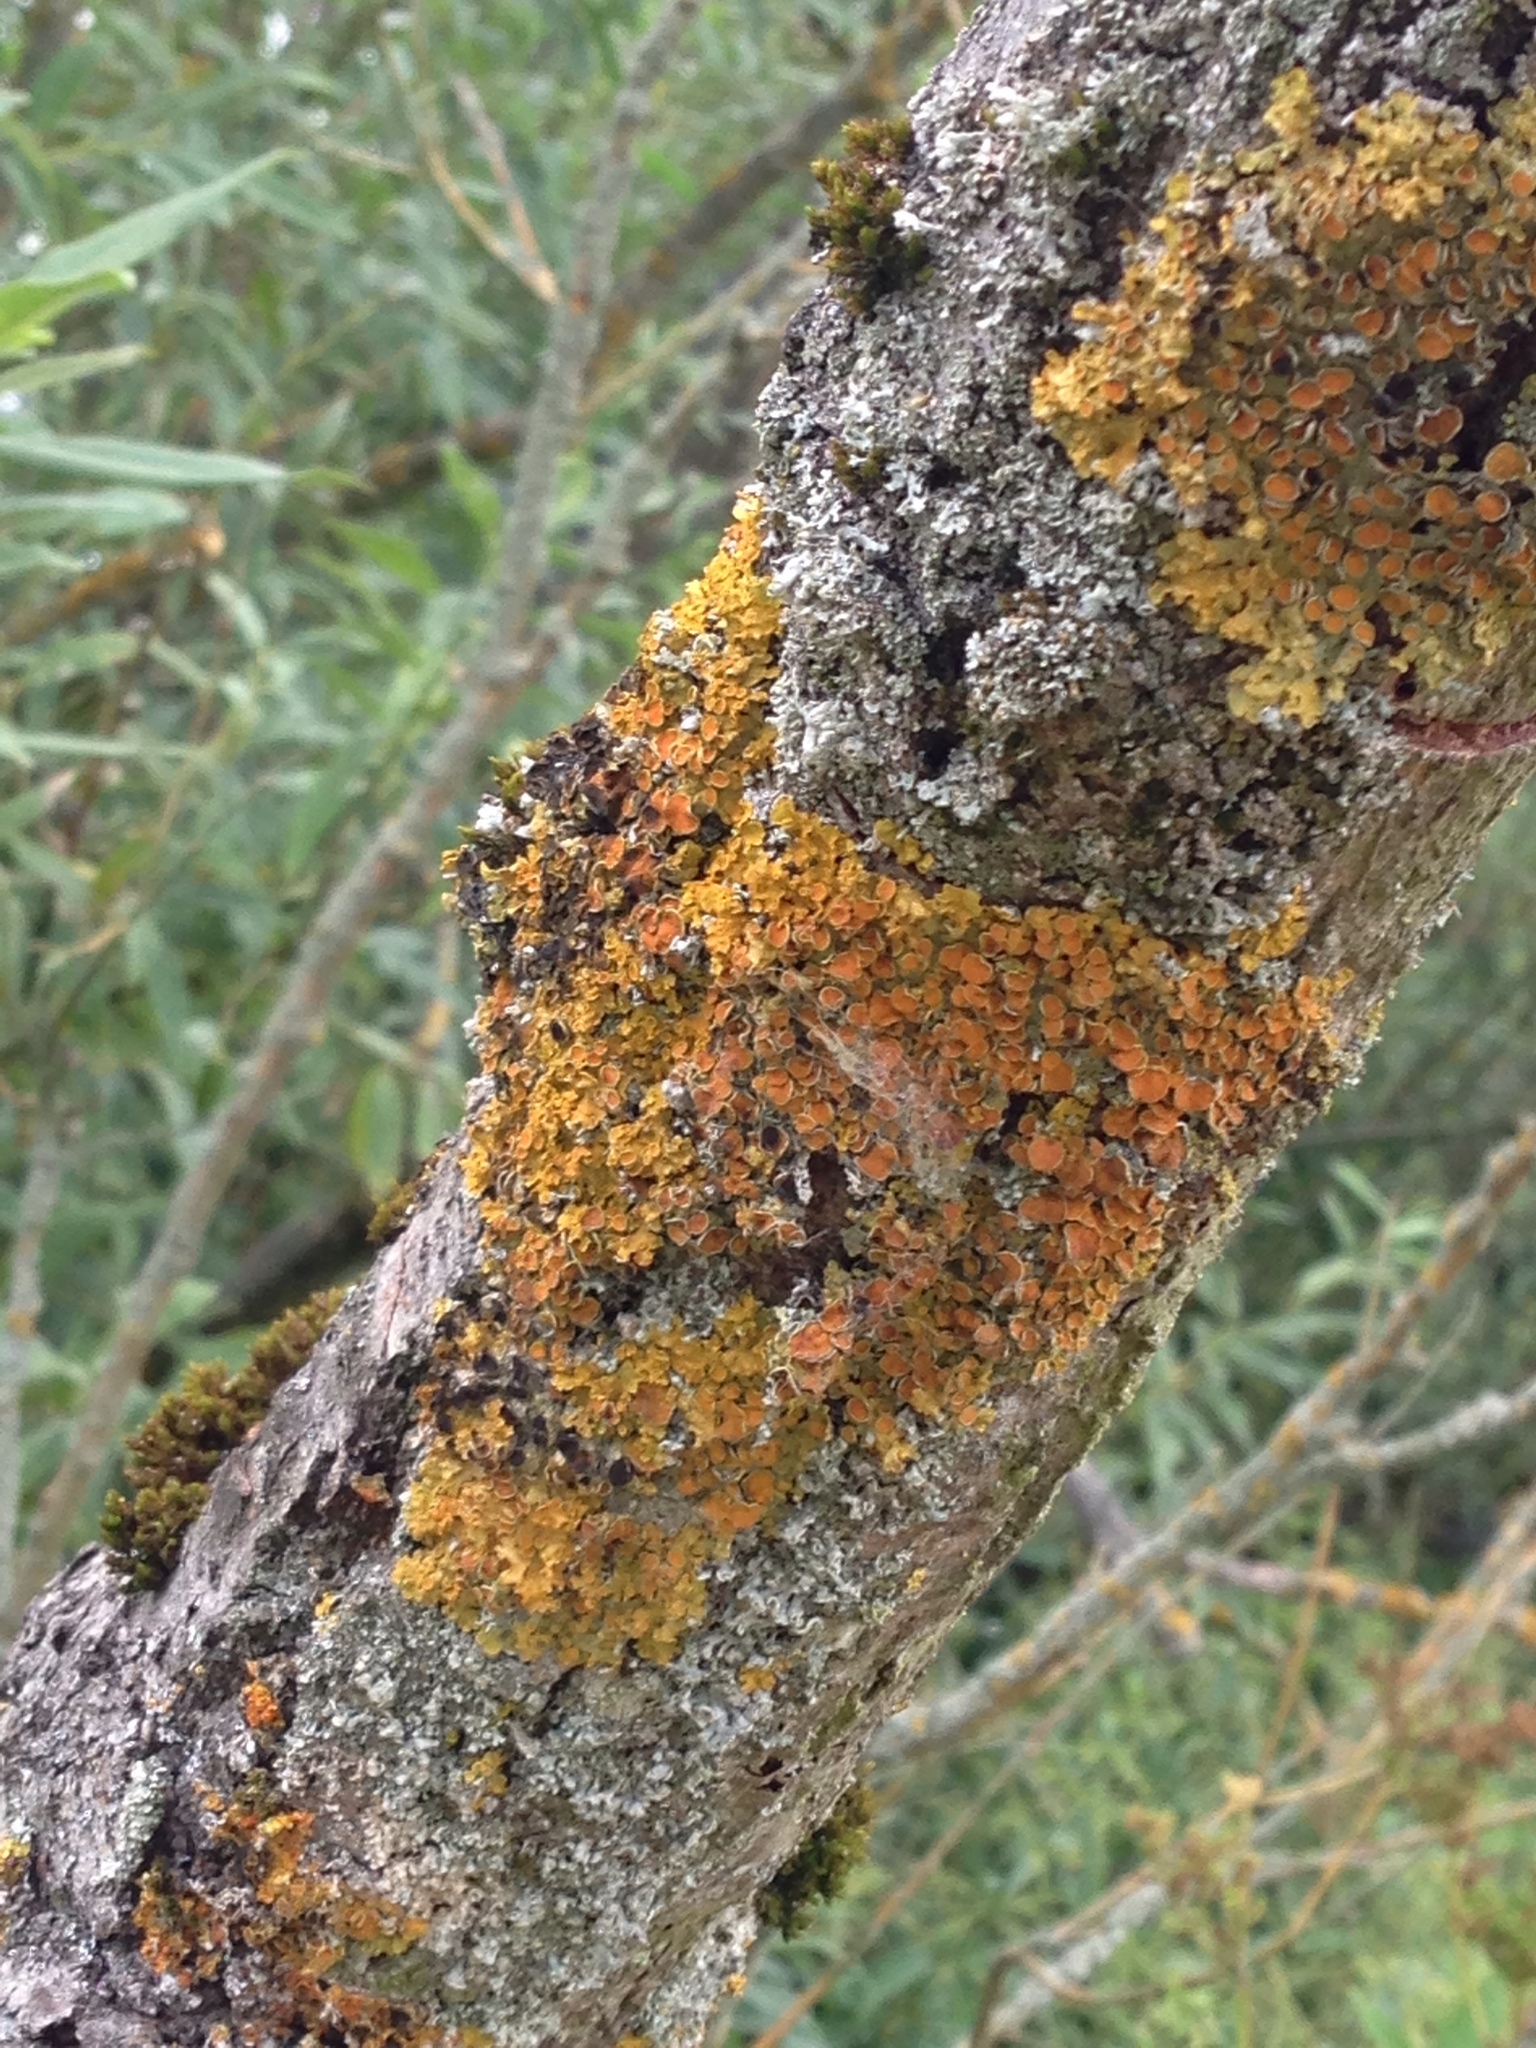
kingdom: Fungi
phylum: Ascomycota
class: Lecanoromycetes
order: Teloschistales
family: Teloschistaceae
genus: Xanthoria
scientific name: Xanthoria parietina
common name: Common orange lichen
